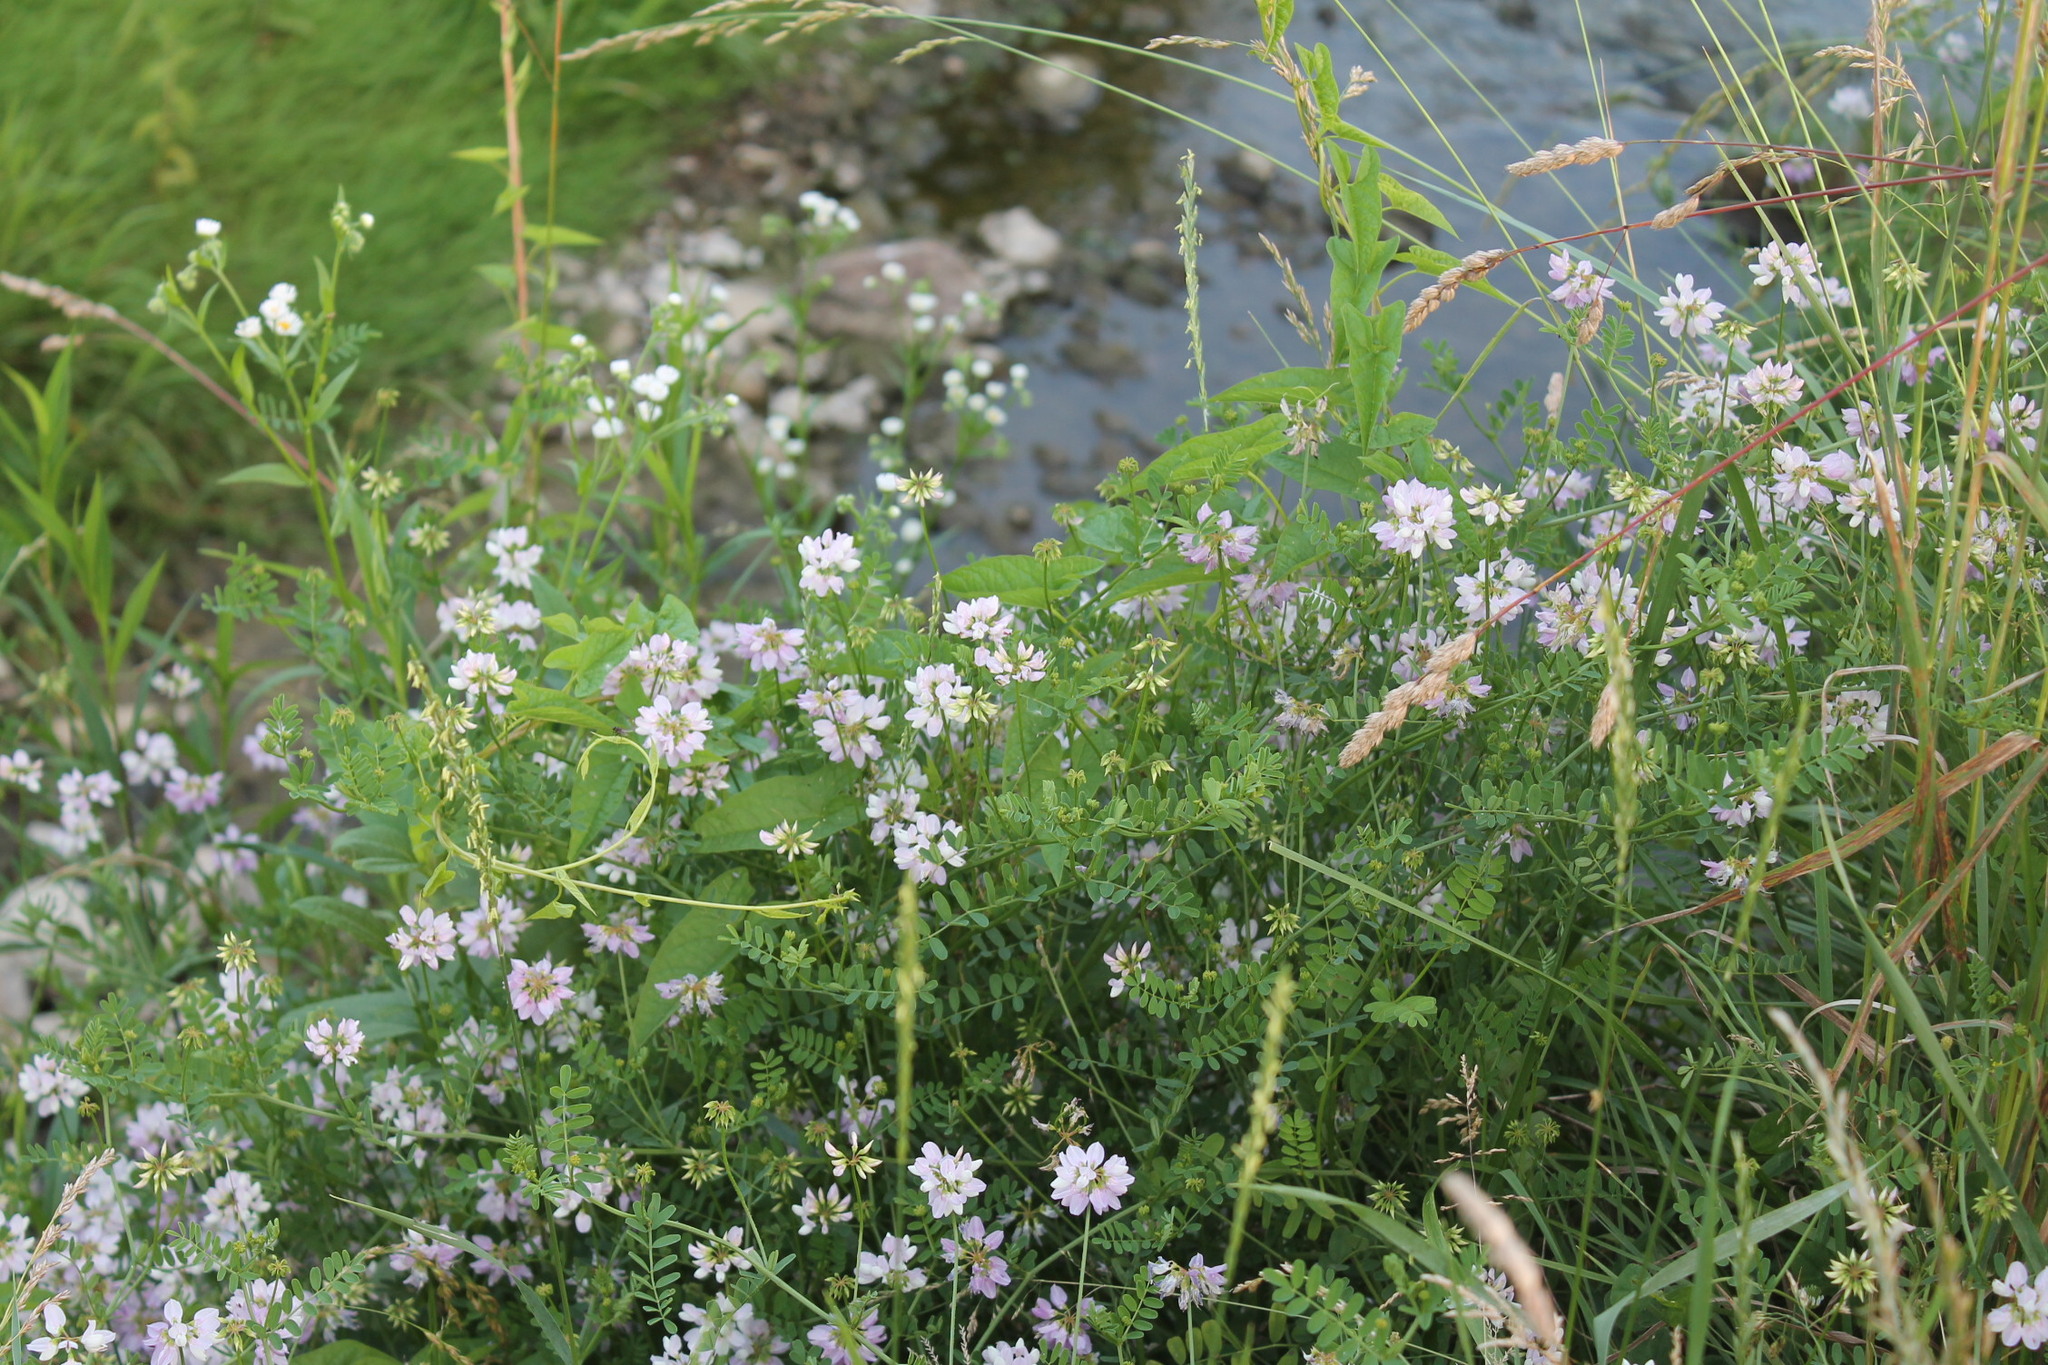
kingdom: Plantae
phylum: Tracheophyta
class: Magnoliopsida
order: Fabales
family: Fabaceae
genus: Coronilla
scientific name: Coronilla varia
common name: Crownvetch
